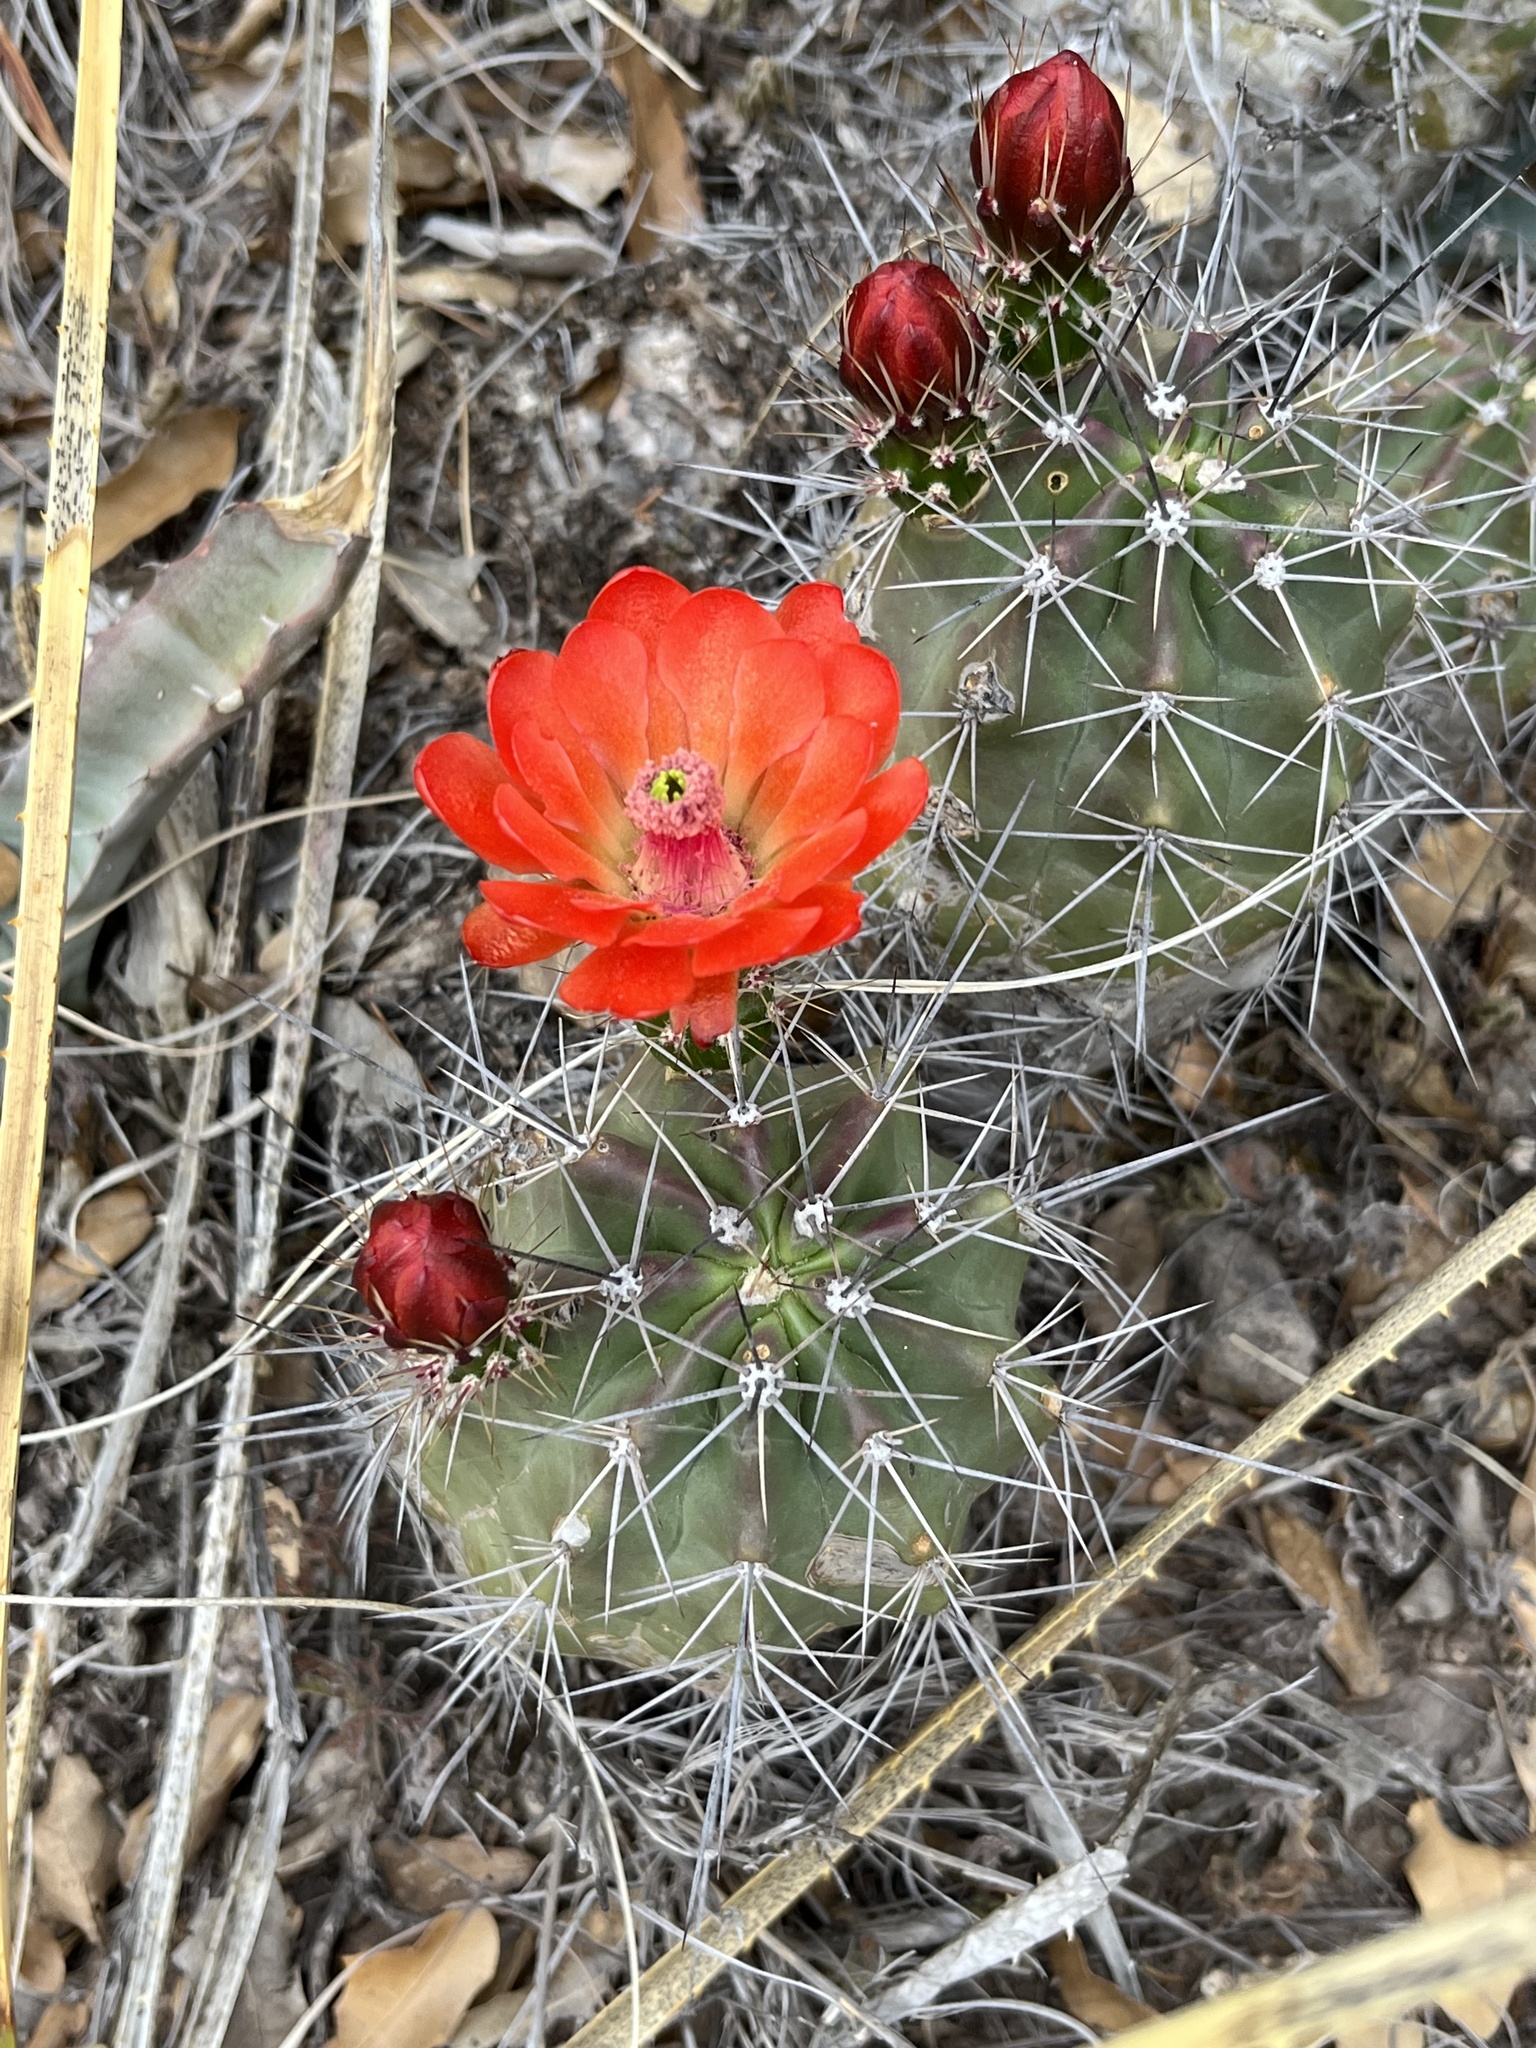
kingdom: Plantae
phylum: Tracheophyta
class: Magnoliopsida
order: Caryophyllales
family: Cactaceae
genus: Echinocereus
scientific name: Echinocereus coccineus
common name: Scarlet hedgehog cactus
